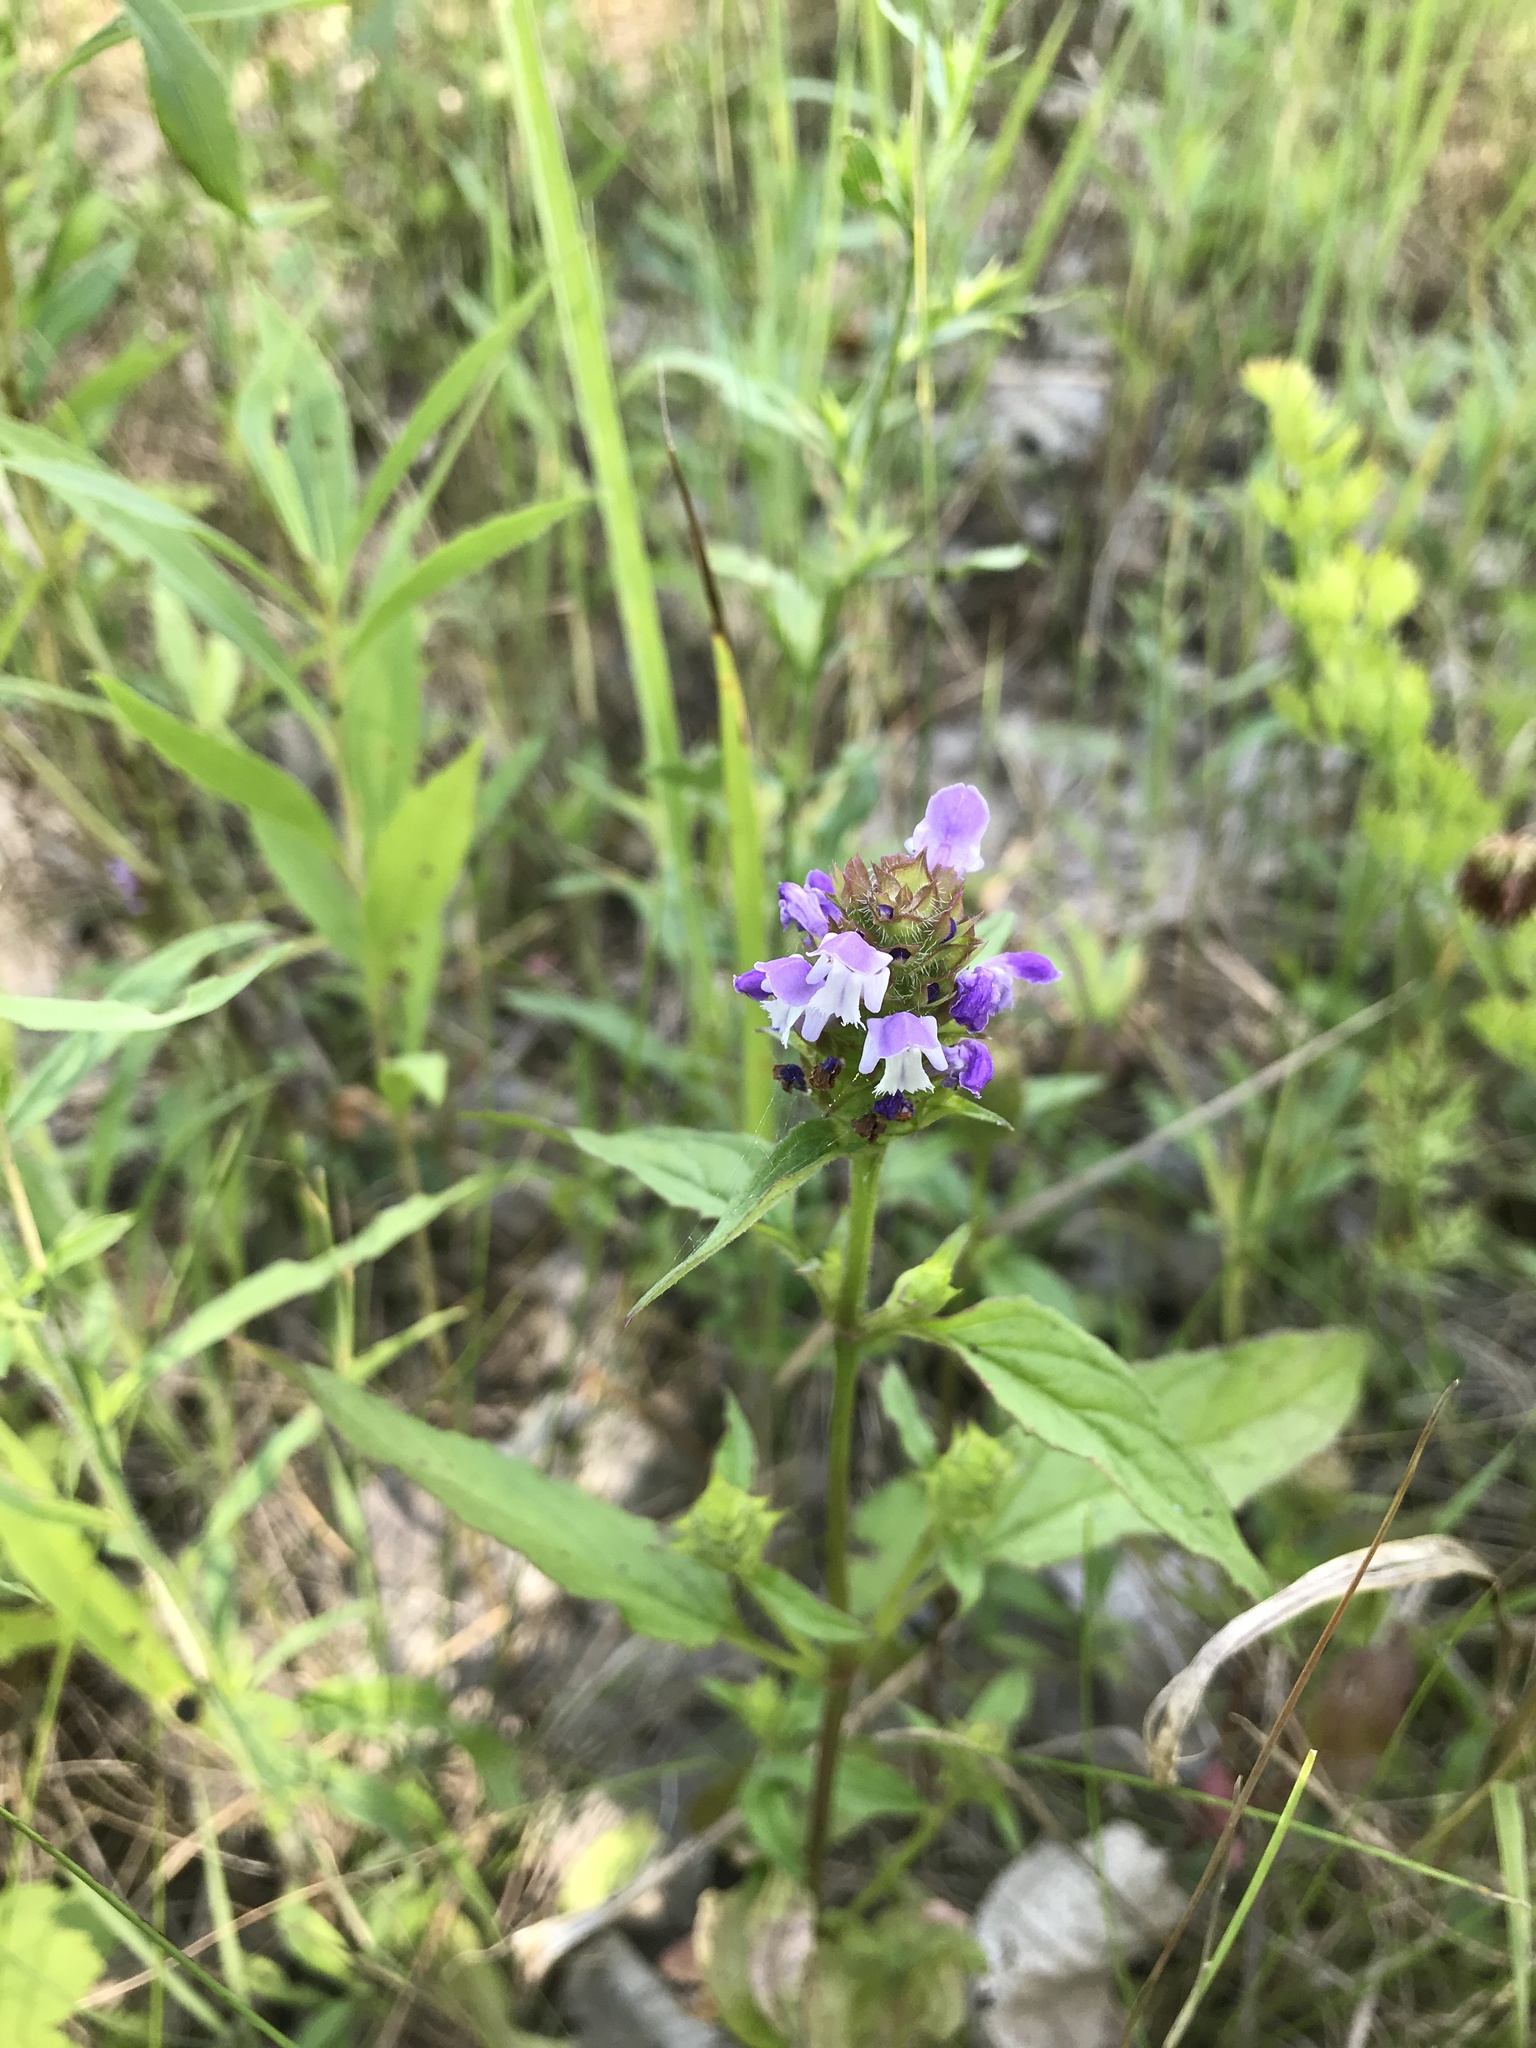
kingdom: Plantae
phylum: Tracheophyta
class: Magnoliopsida
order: Lamiales
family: Lamiaceae
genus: Prunella
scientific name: Prunella vulgaris
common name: Heal-all
